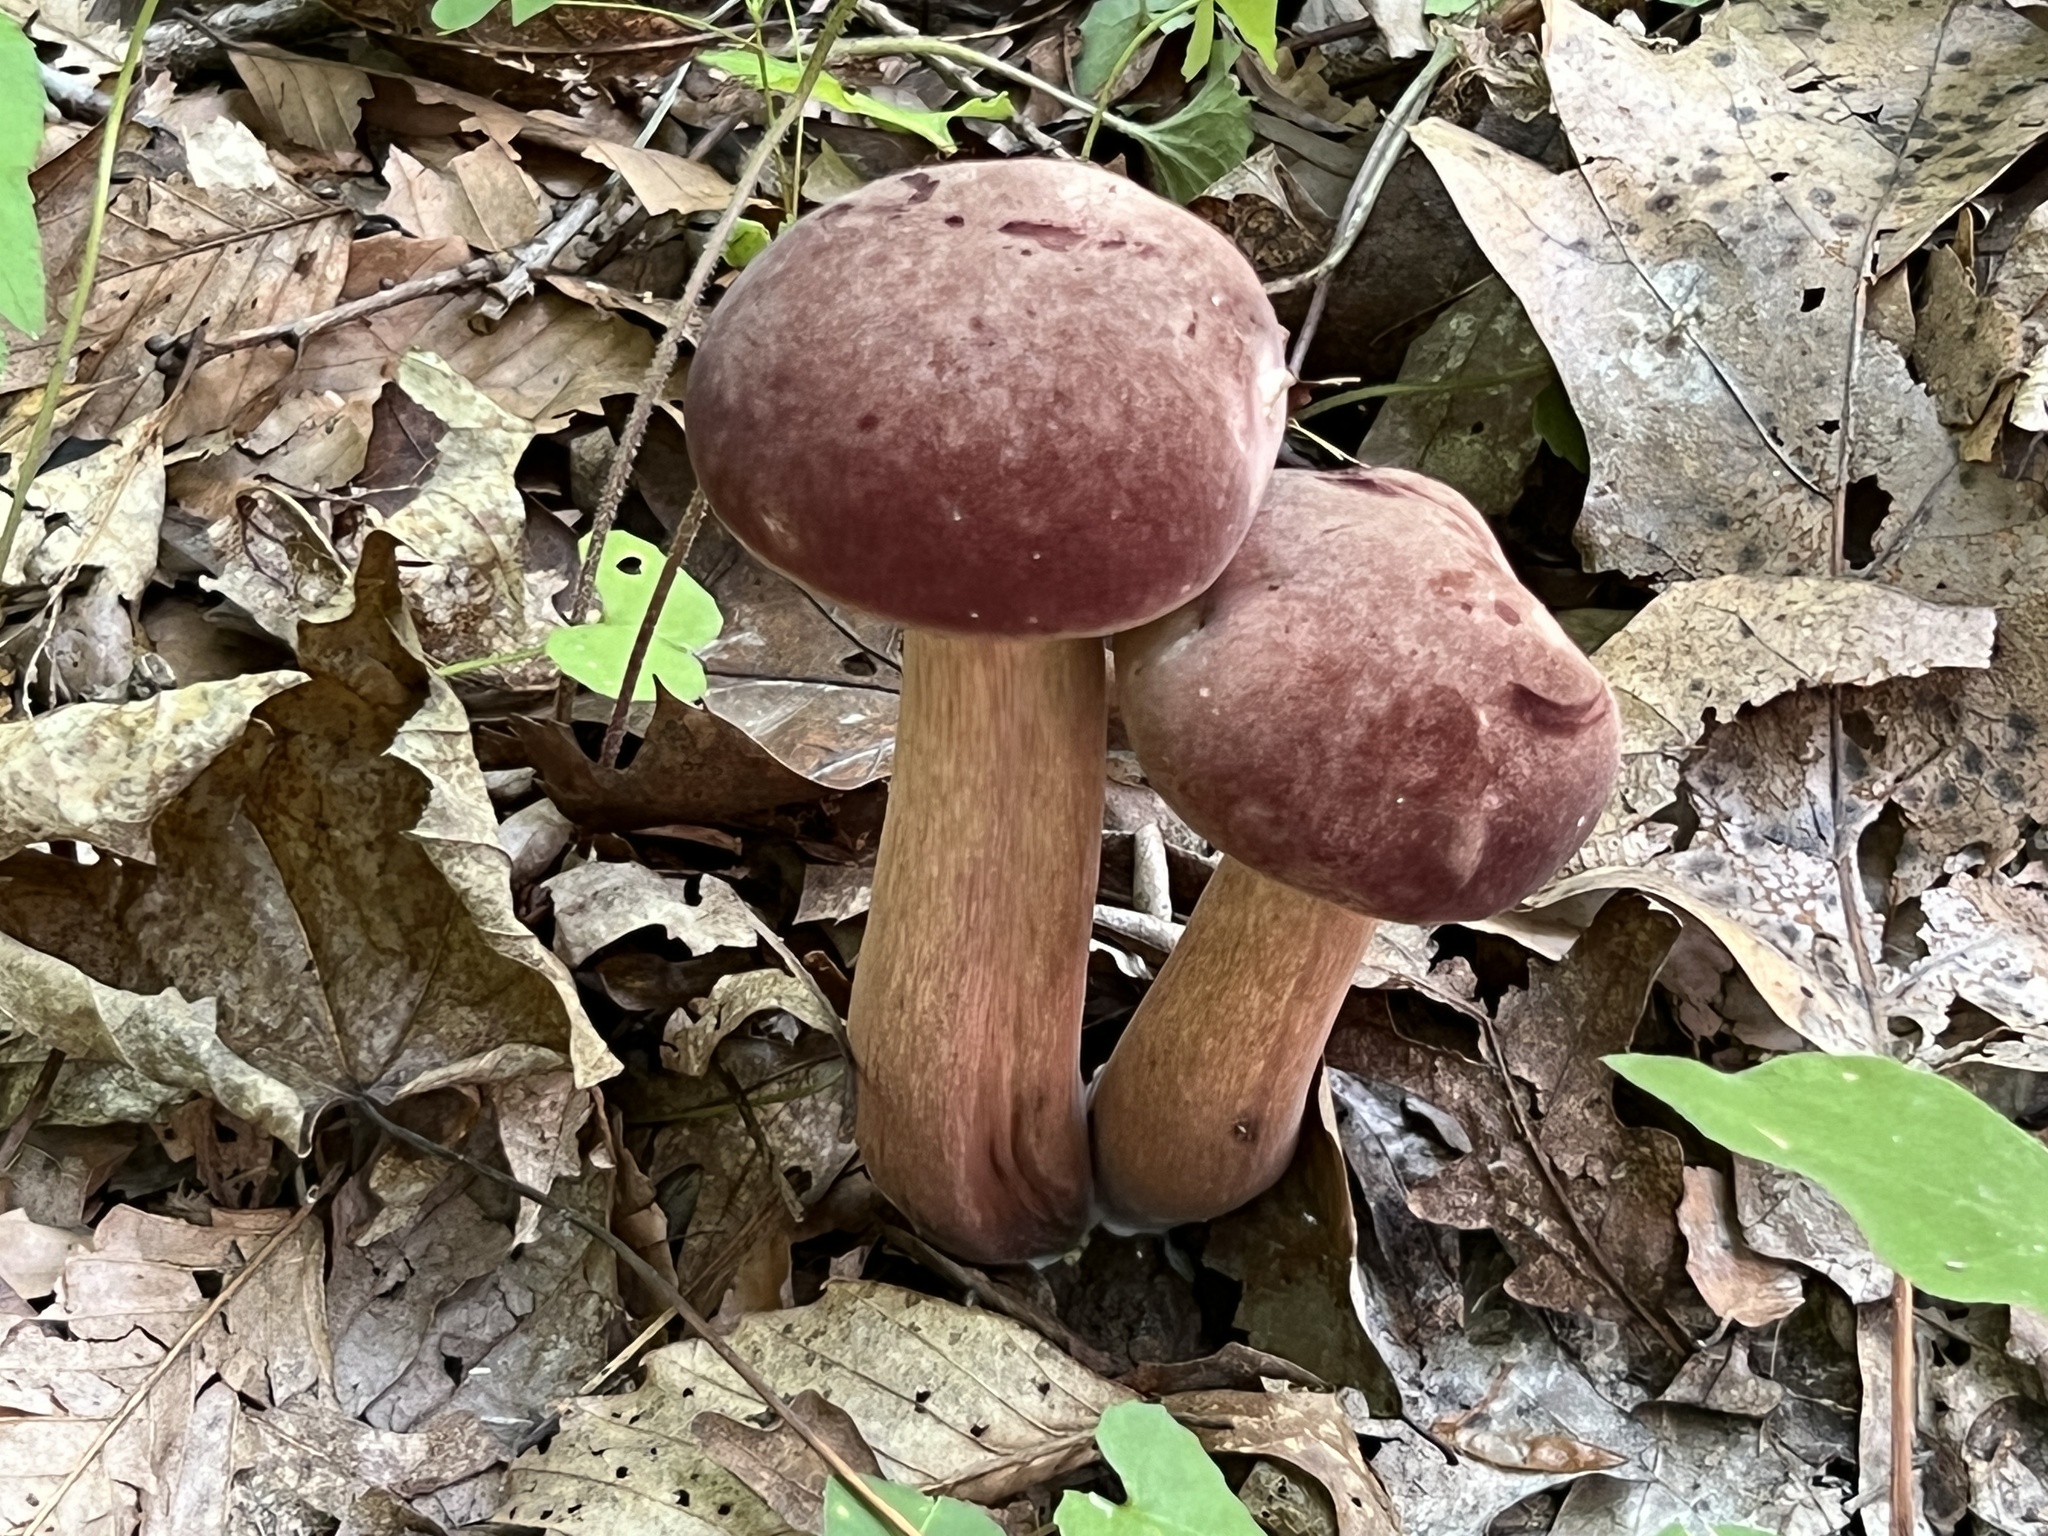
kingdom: Fungi
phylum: Basidiomycota
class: Agaricomycetes
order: Boletales
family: Boletaceae
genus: Tylopilus
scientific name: Tylopilus rubrobrunneus
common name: Reddish brown bitter bolete
